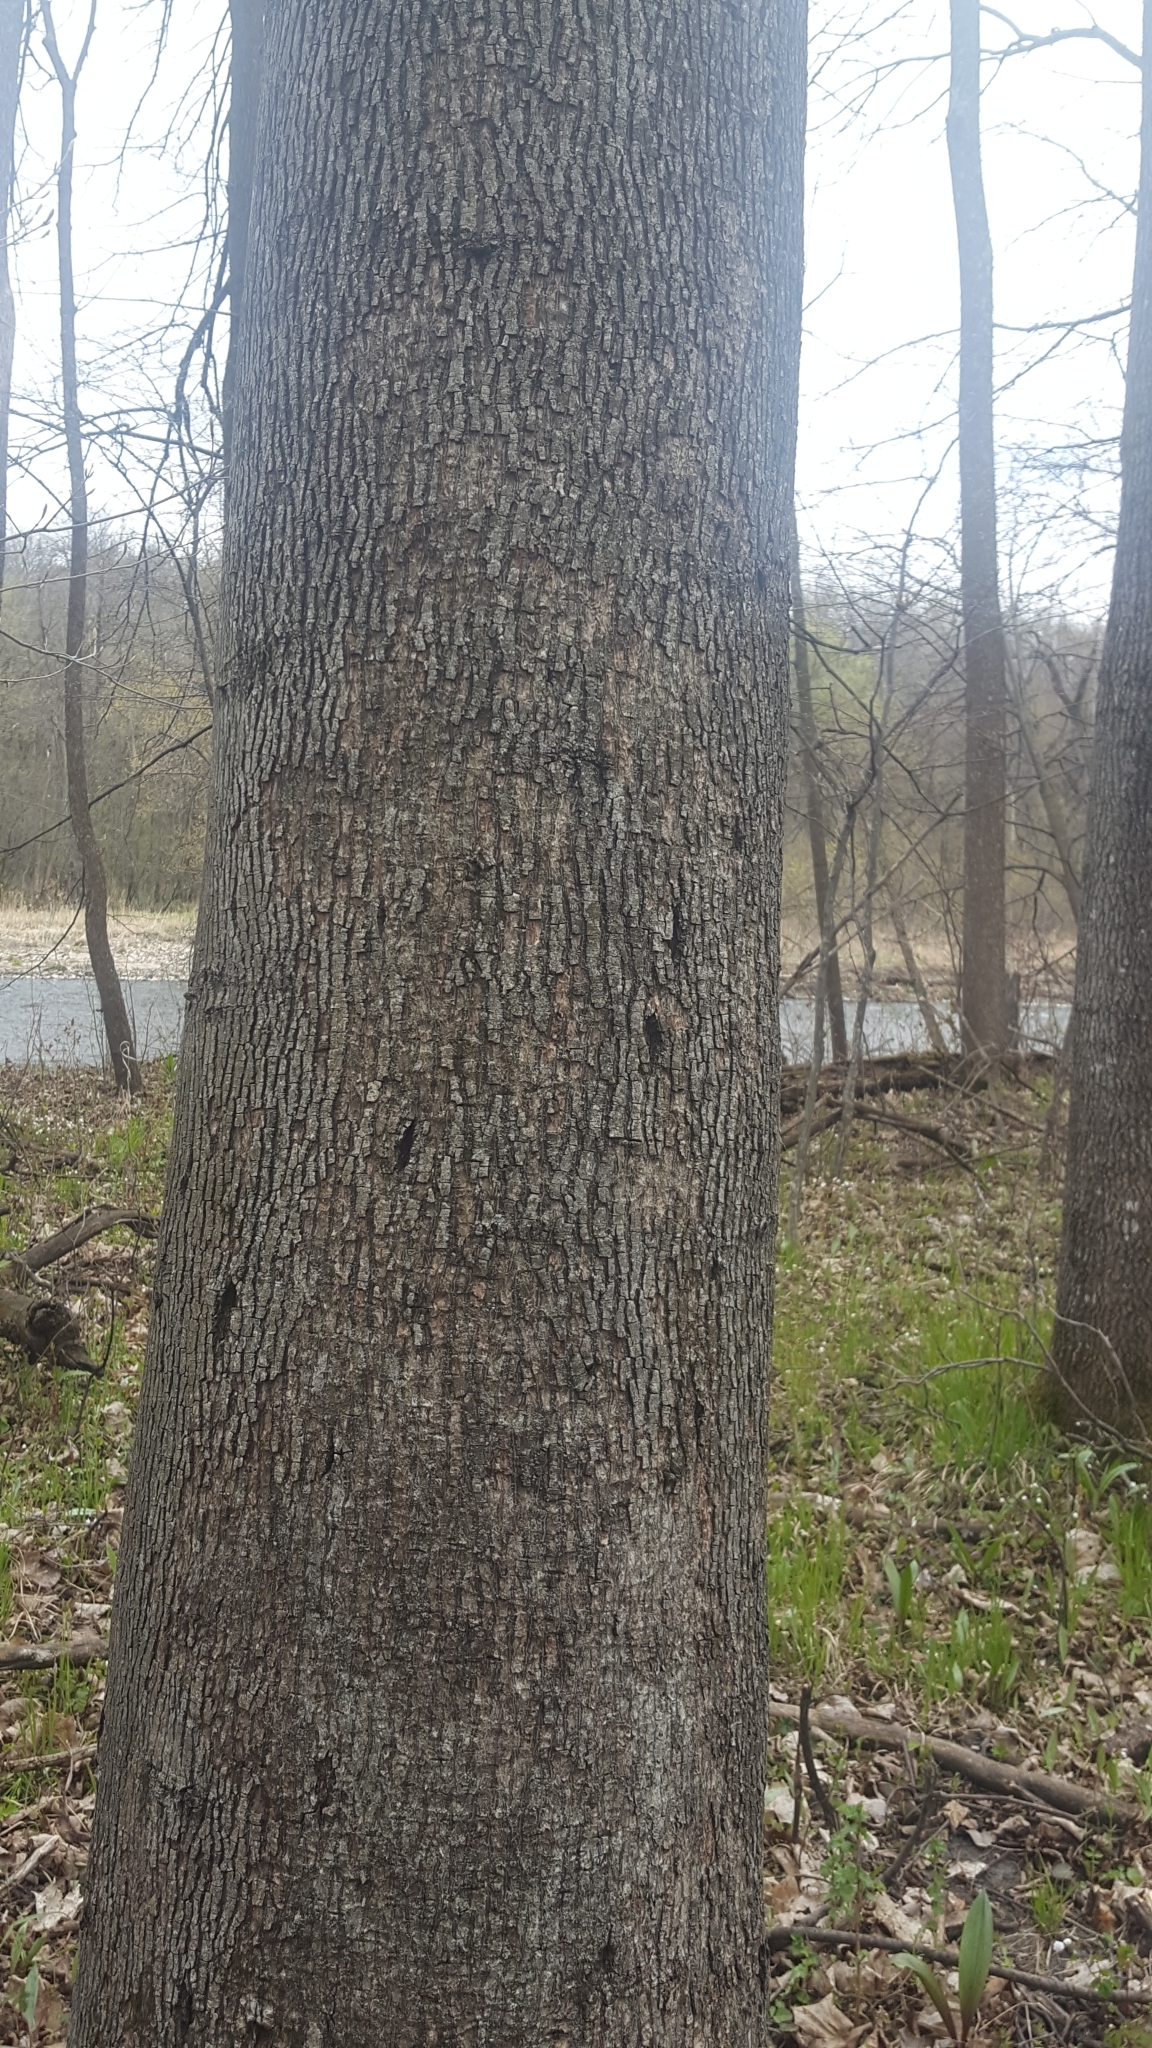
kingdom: Plantae
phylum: Tracheophyta
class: Magnoliopsida
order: Fagales
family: Juglandaceae
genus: Carya
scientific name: Carya cordiformis
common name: Bitternut hickory
